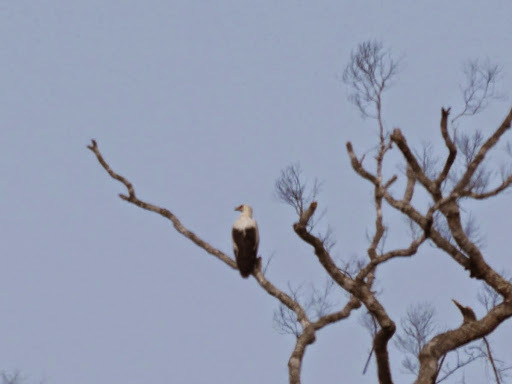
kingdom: Animalia
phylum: Chordata
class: Aves
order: Accipitriformes
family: Accipitridae
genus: Gypohierax
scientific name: Gypohierax angolensis
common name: Palm-nut vulture
